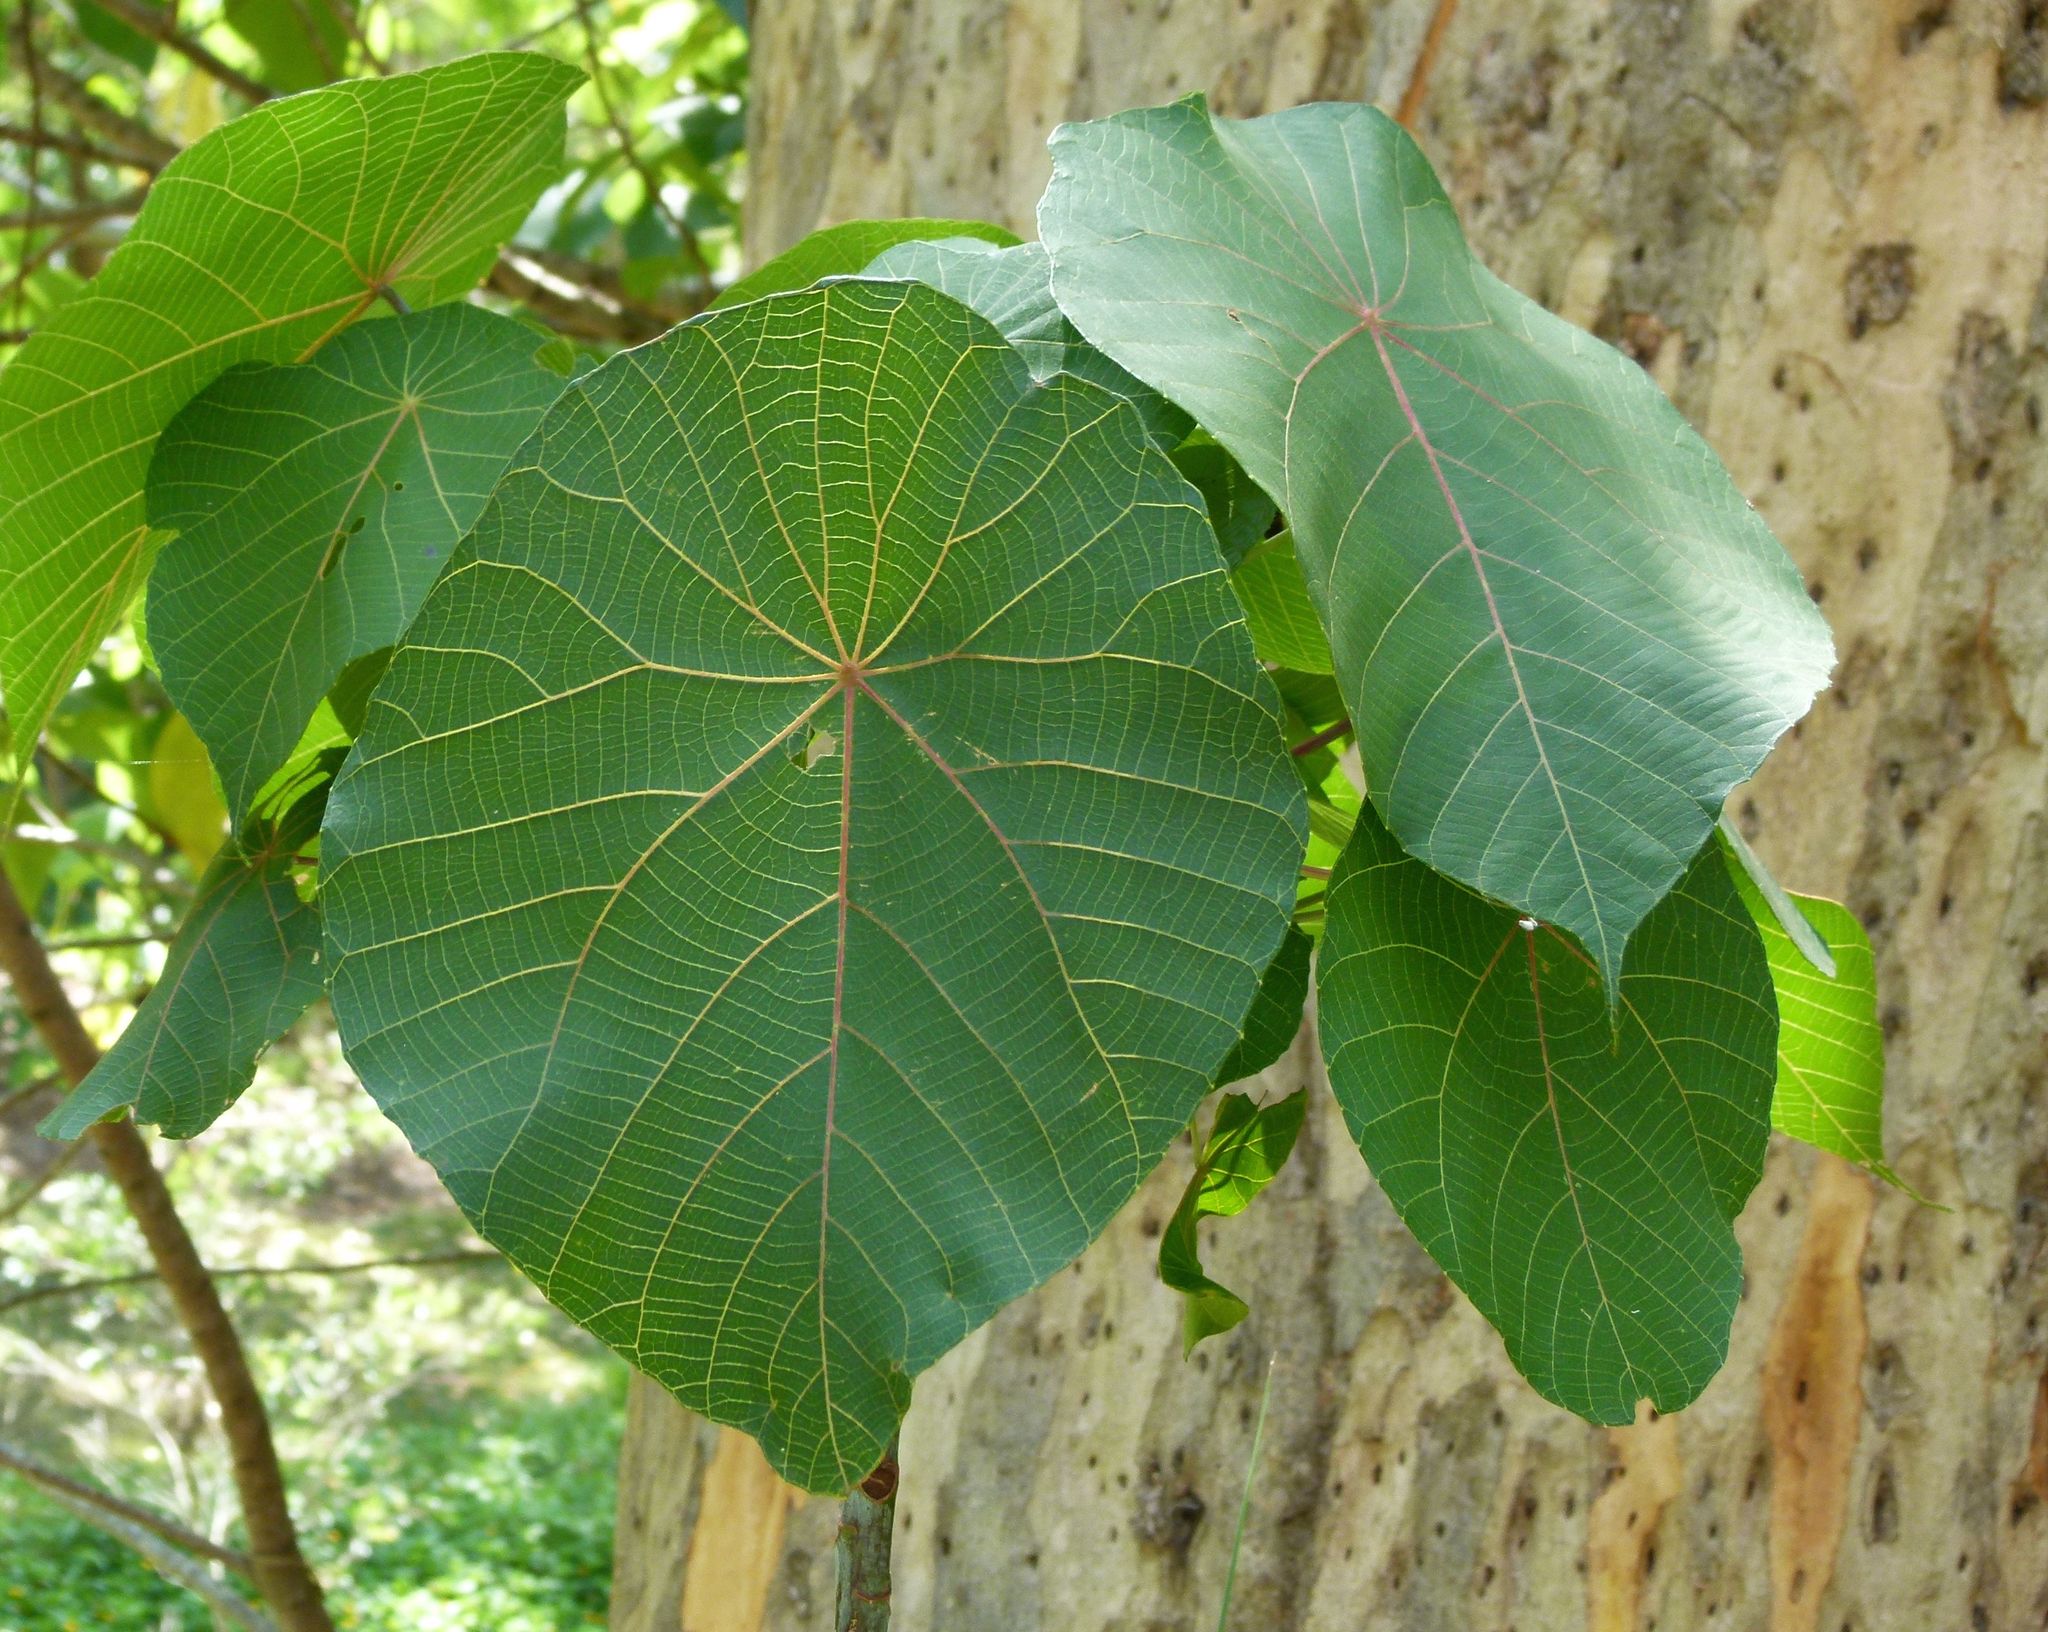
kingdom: Plantae
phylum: Tracheophyta
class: Magnoliopsida
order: Malpighiales
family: Euphorbiaceae
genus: Macaranga
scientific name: Macaranga tanarius
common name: Parasol leaf tree
